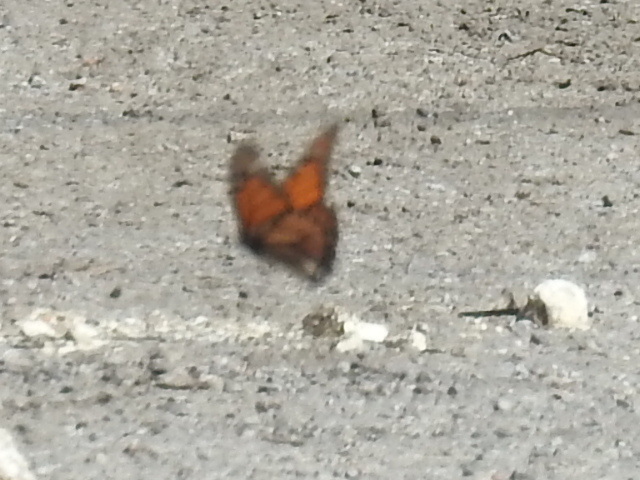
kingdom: Animalia
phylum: Arthropoda
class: Insecta
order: Lepidoptera
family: Nymphalidae
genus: Danaus
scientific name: Danaus plexippus
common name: Monarch
